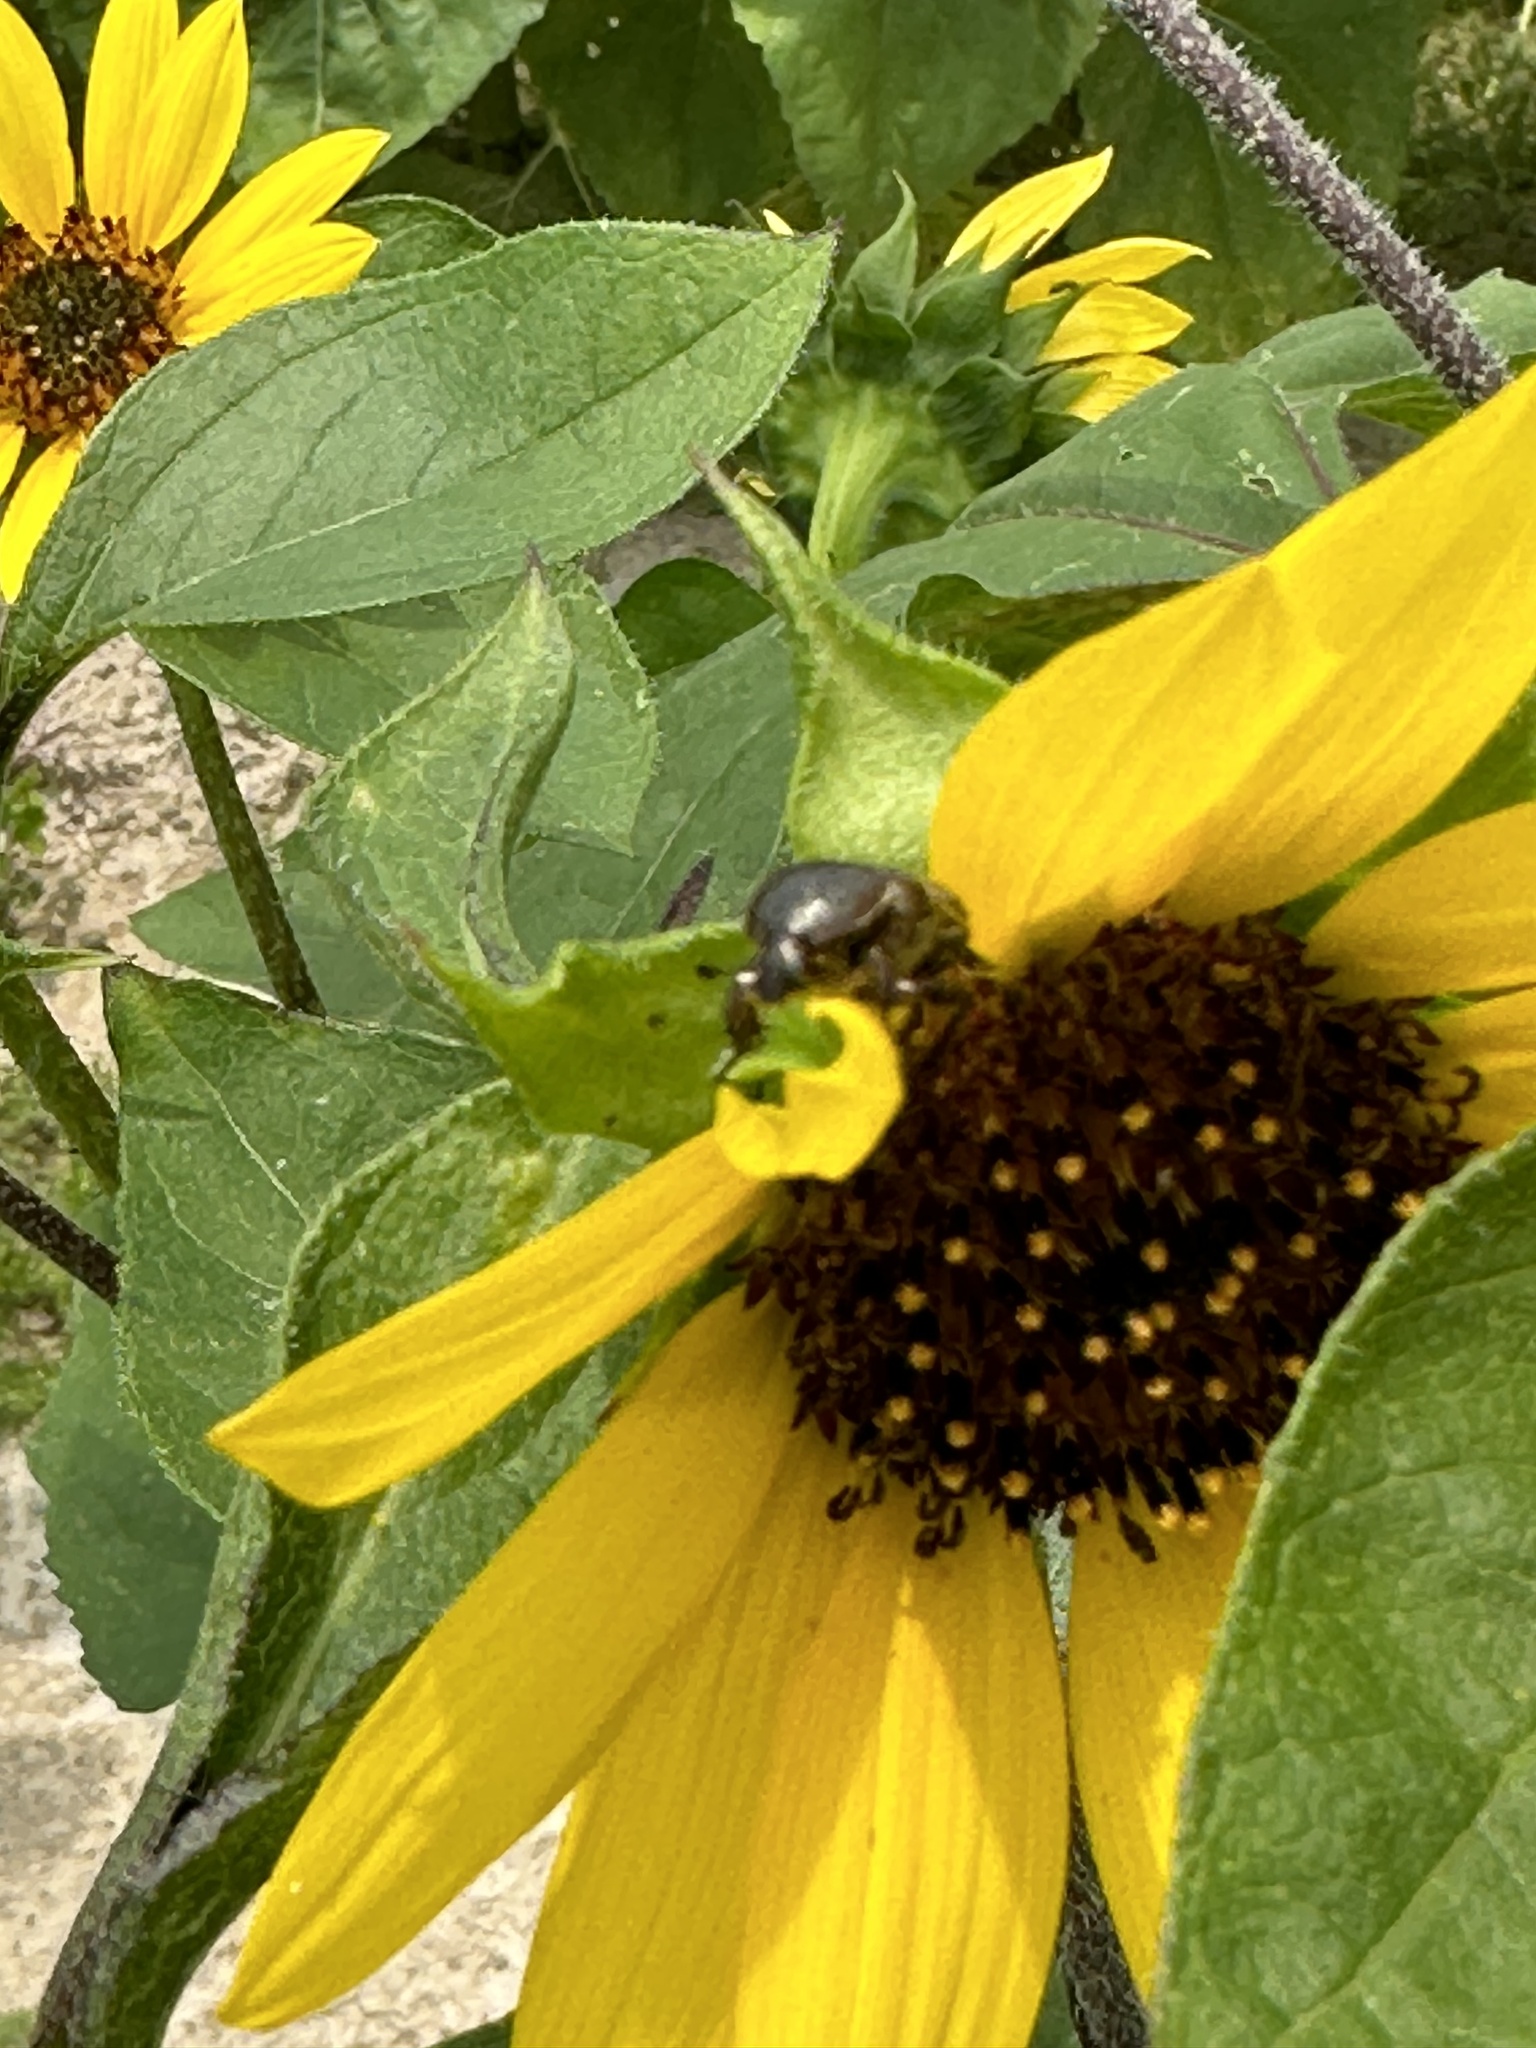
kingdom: Animalia
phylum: Arthropoda
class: Insecta
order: Coleoptera
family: Scarabaeidae
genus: Euphoria
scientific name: Euphoria sepulcralis
